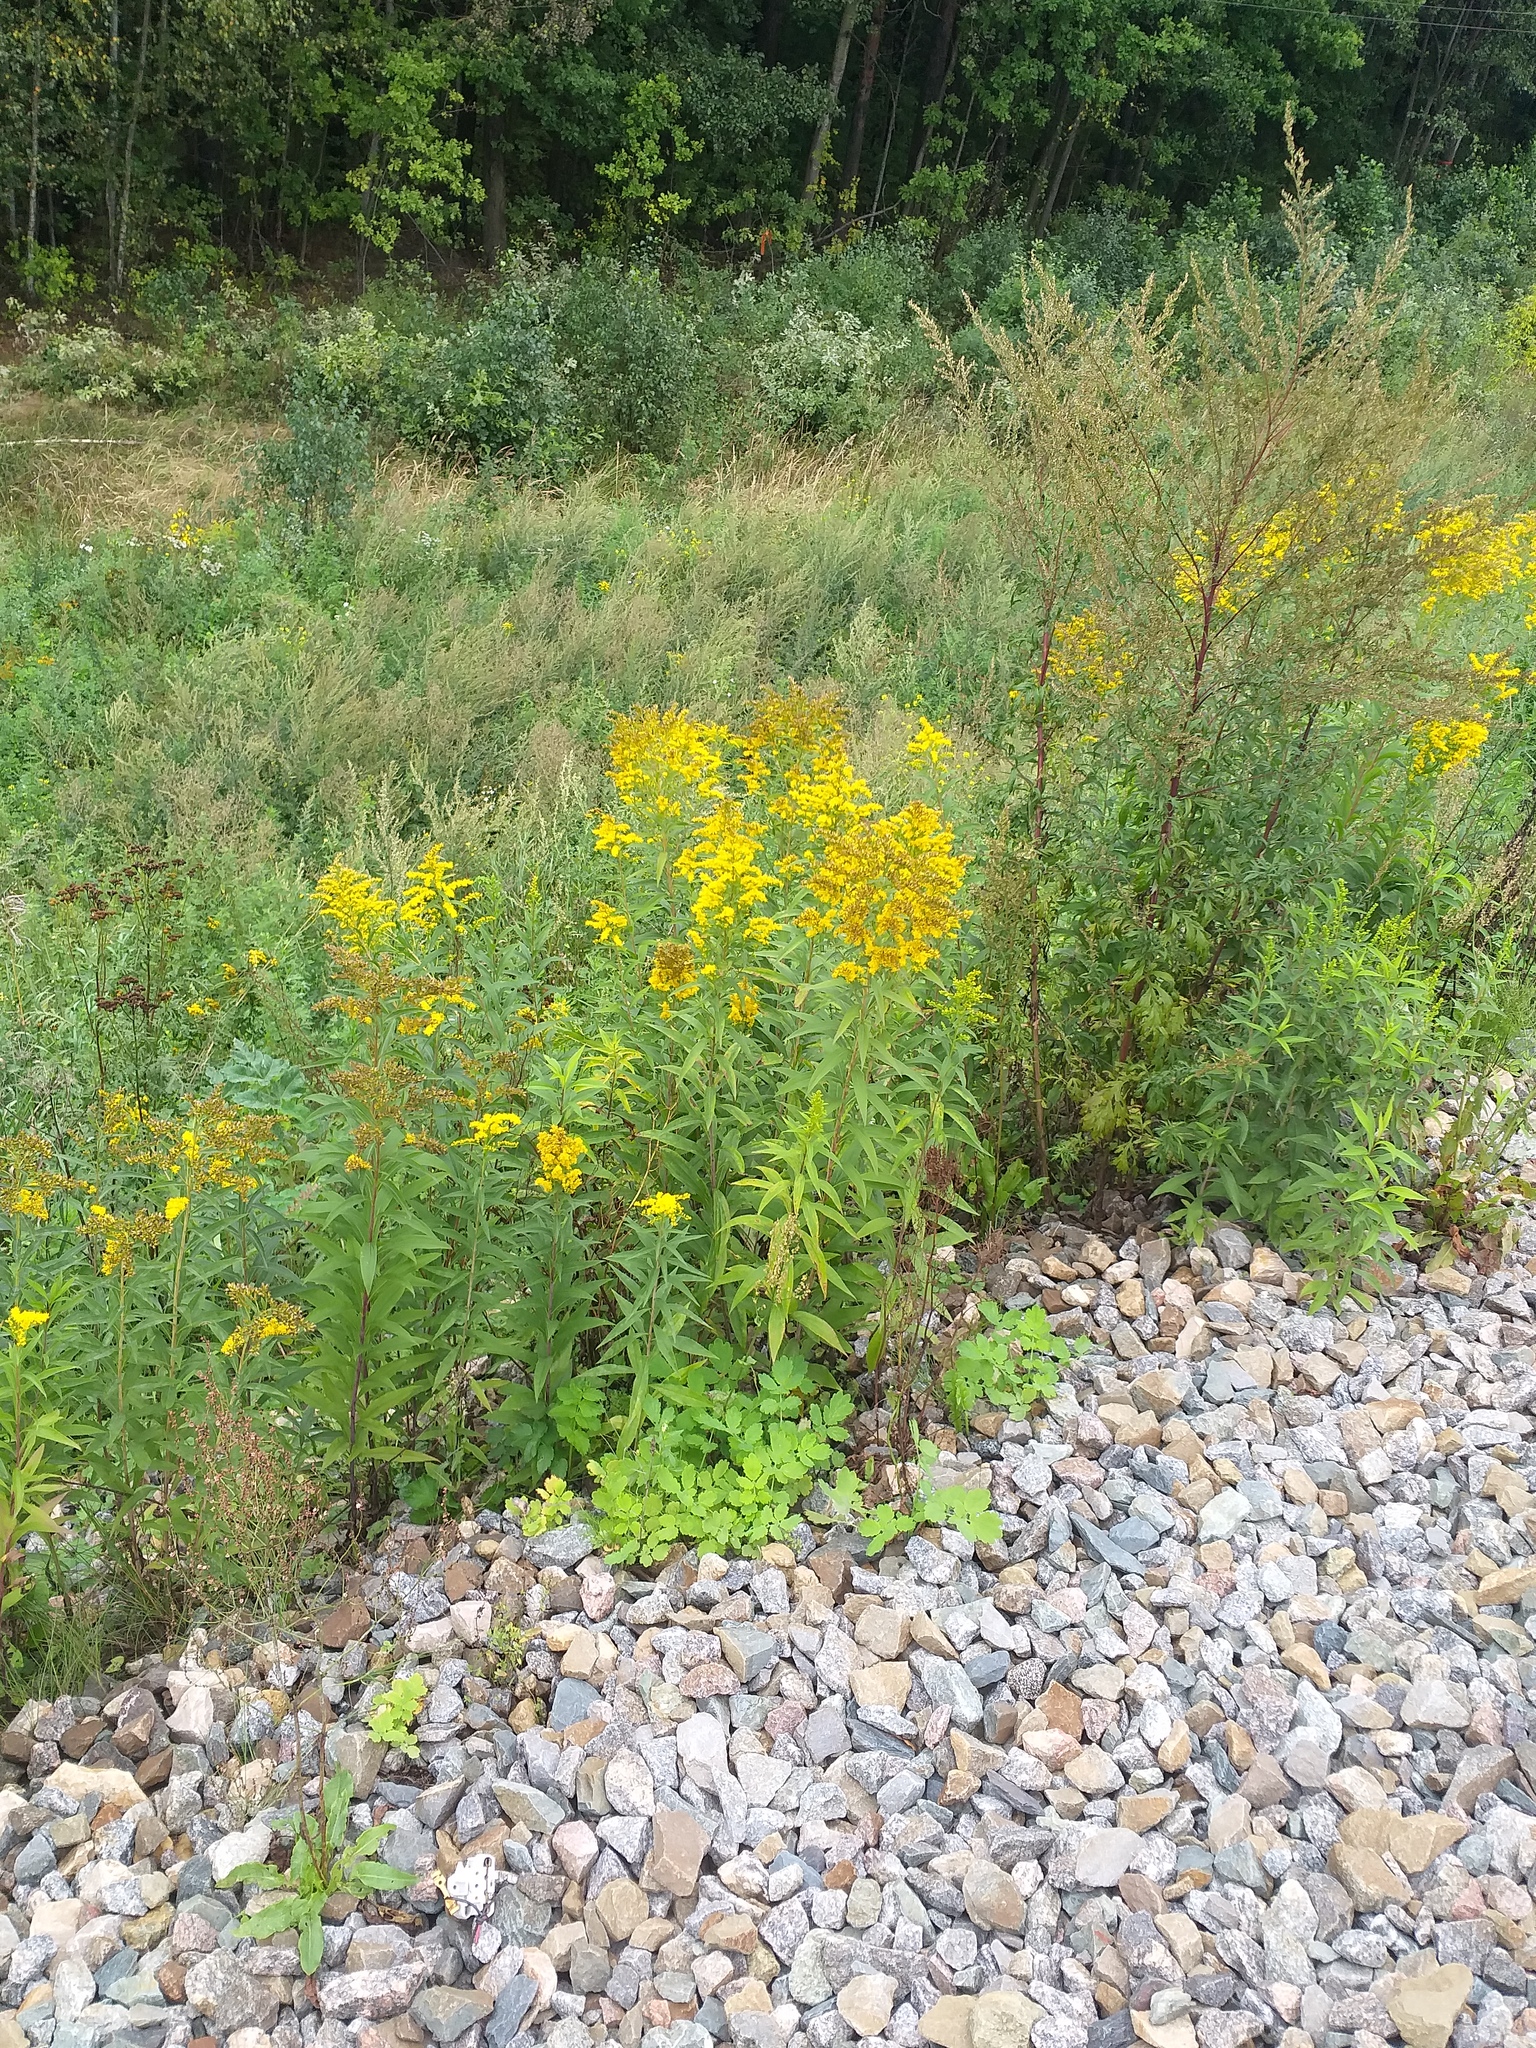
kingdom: Plantae
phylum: Tracheophyta
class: Magnoliopsida
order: Asterales
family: Asteraceae
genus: Solidago
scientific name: Solidago gigantea
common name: Giant goldenrod
